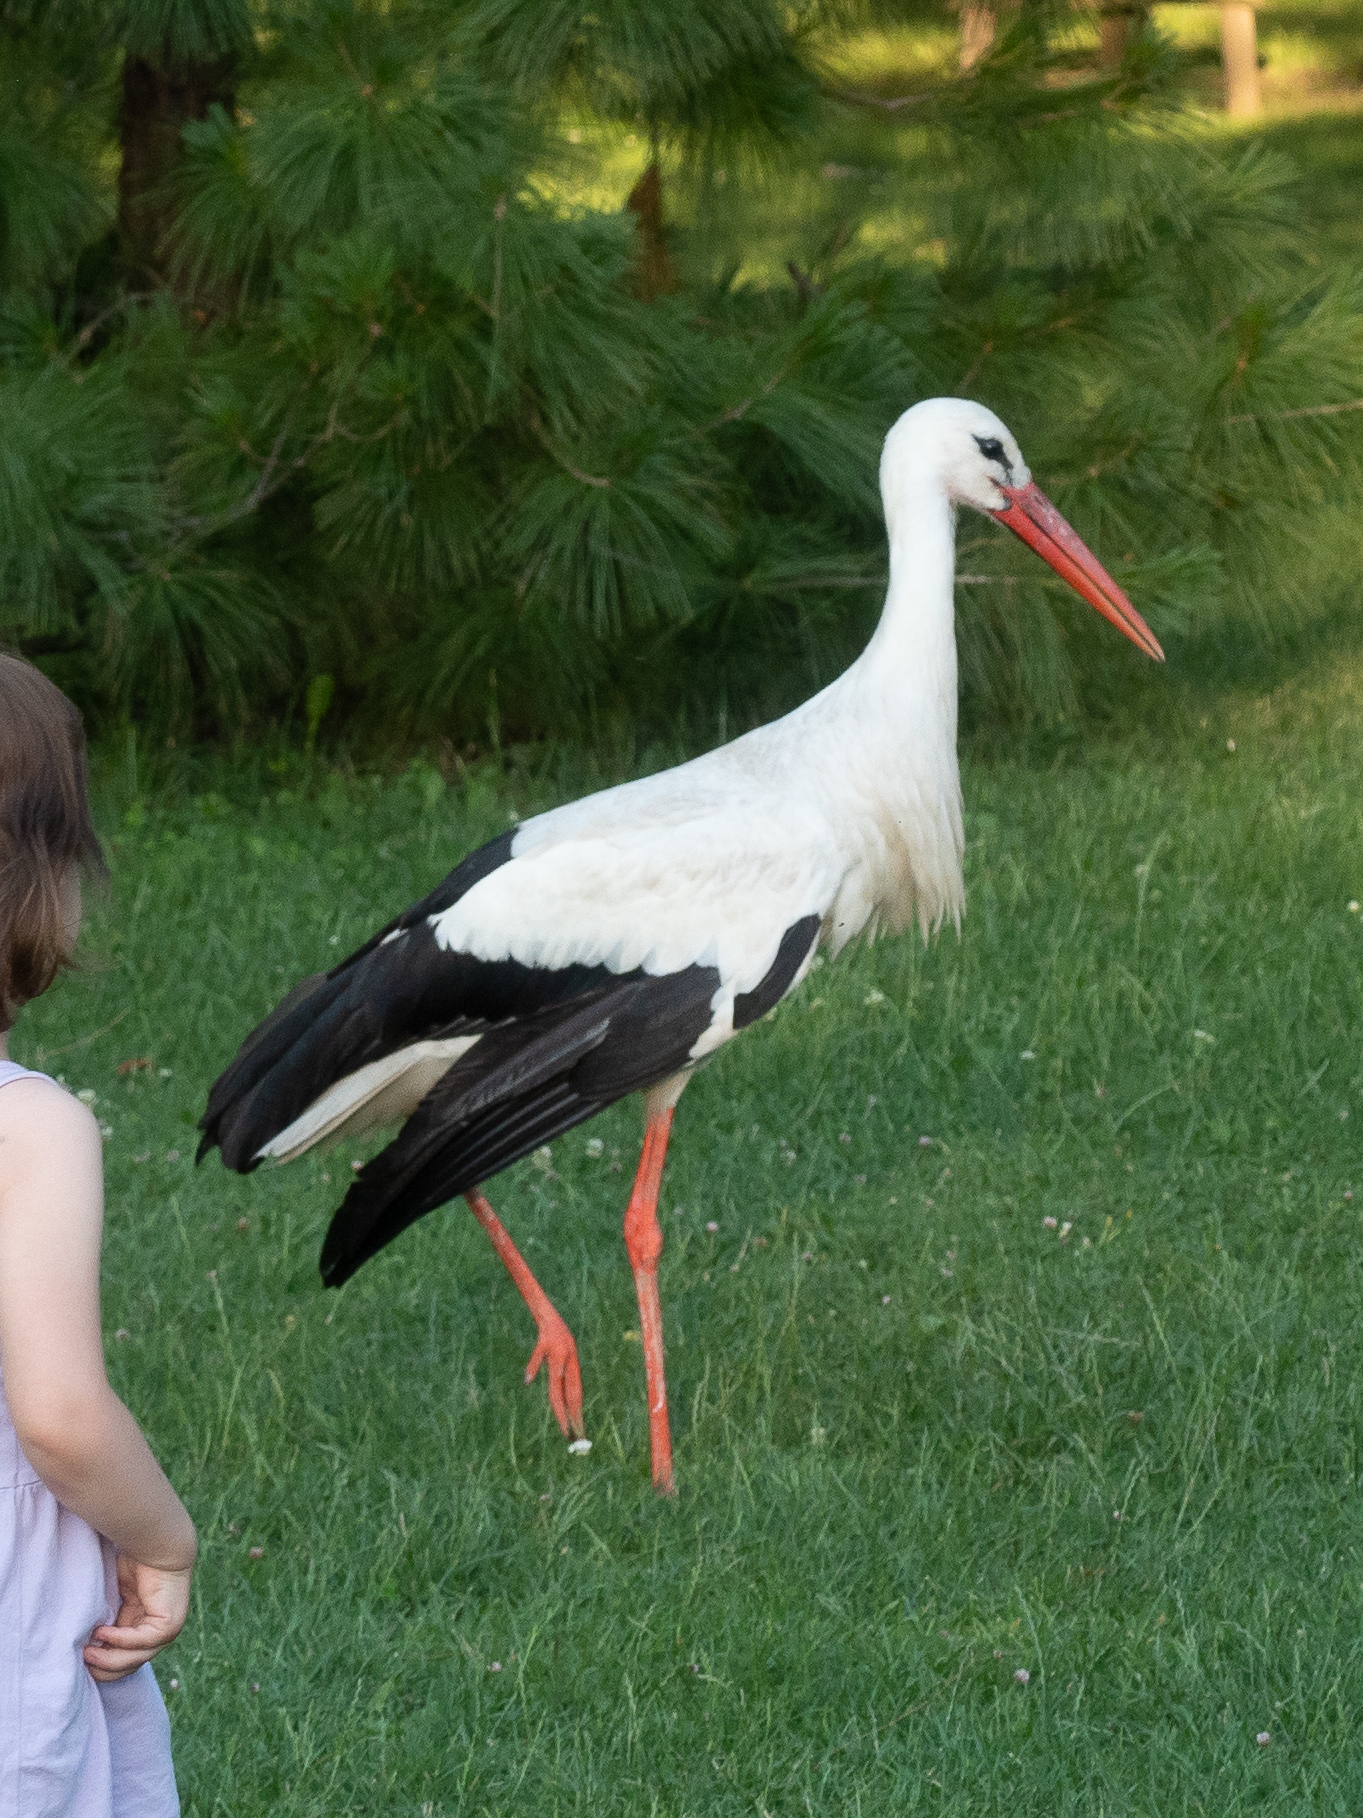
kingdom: Animalia
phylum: Chordata
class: Aves
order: Ciconiiformes
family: Ciconiidae
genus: Ciconia
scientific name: Ciconia ciconia
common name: White stork
